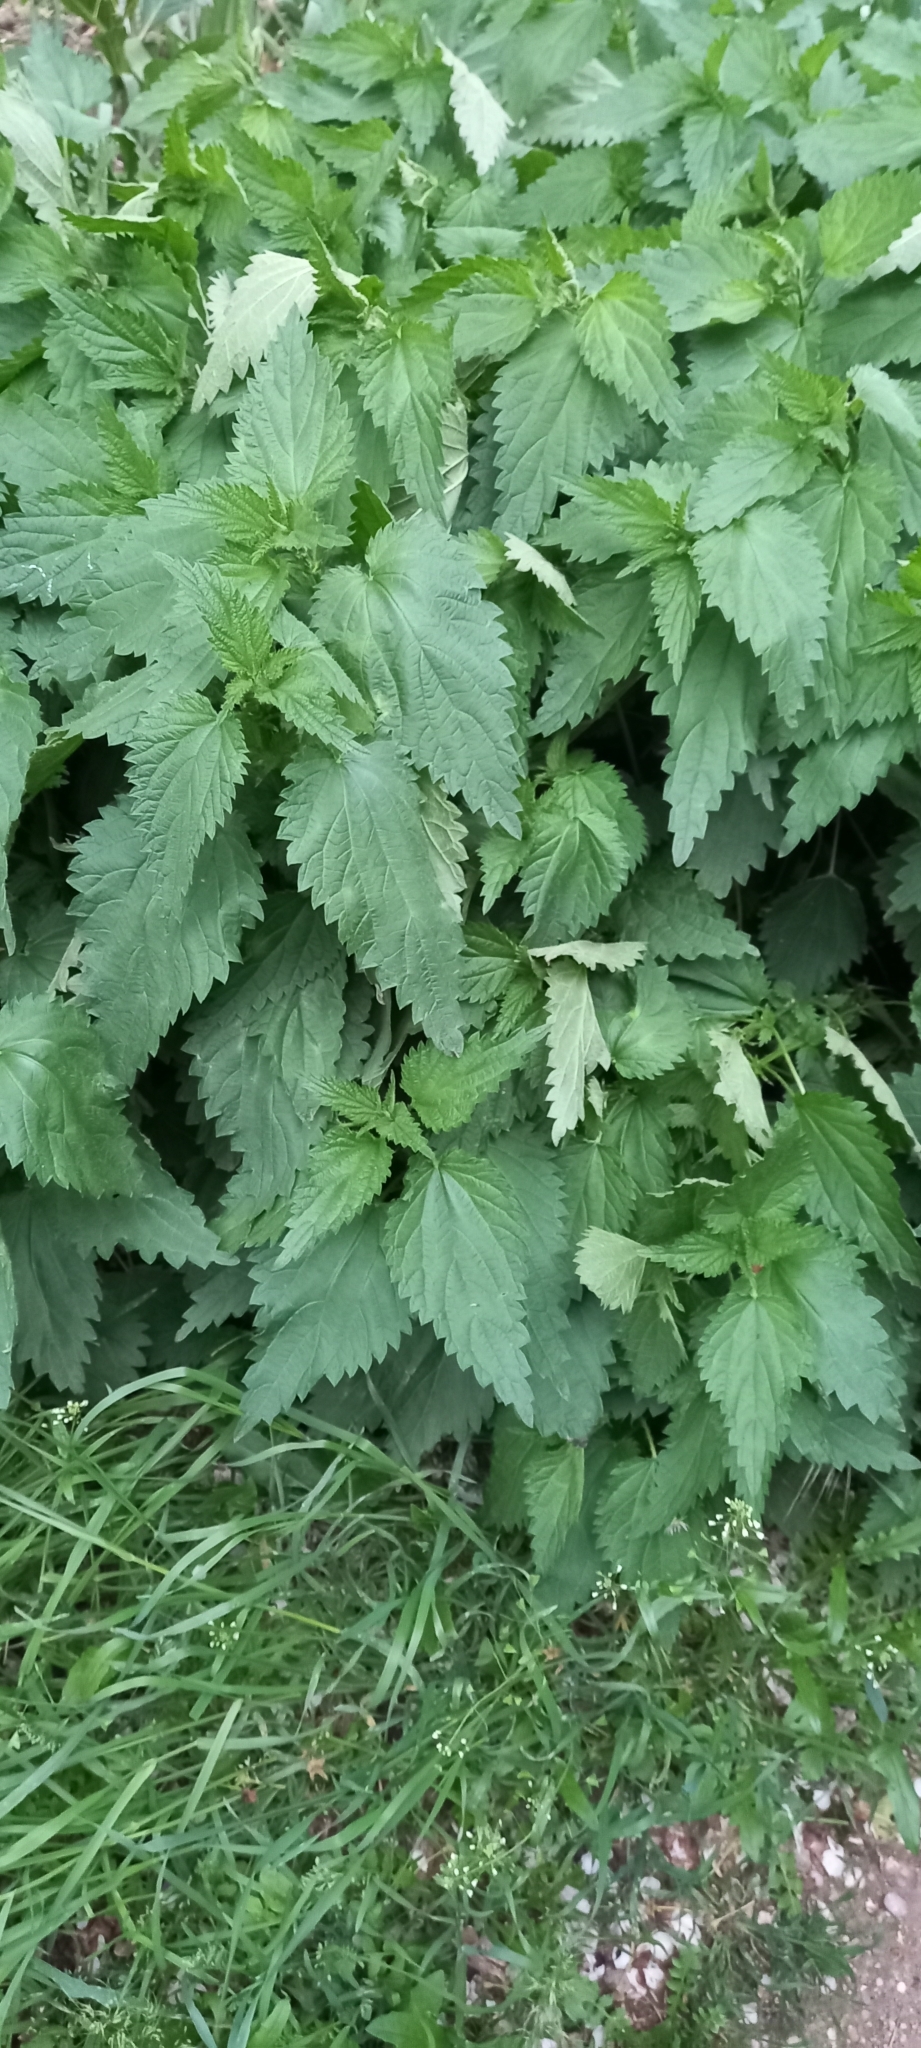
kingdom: Plantae
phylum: Tracheophyta
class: Magnoliopsida
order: Rosales
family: Urticaceae
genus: Urtica
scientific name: Urtica dioica
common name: Common nettle
